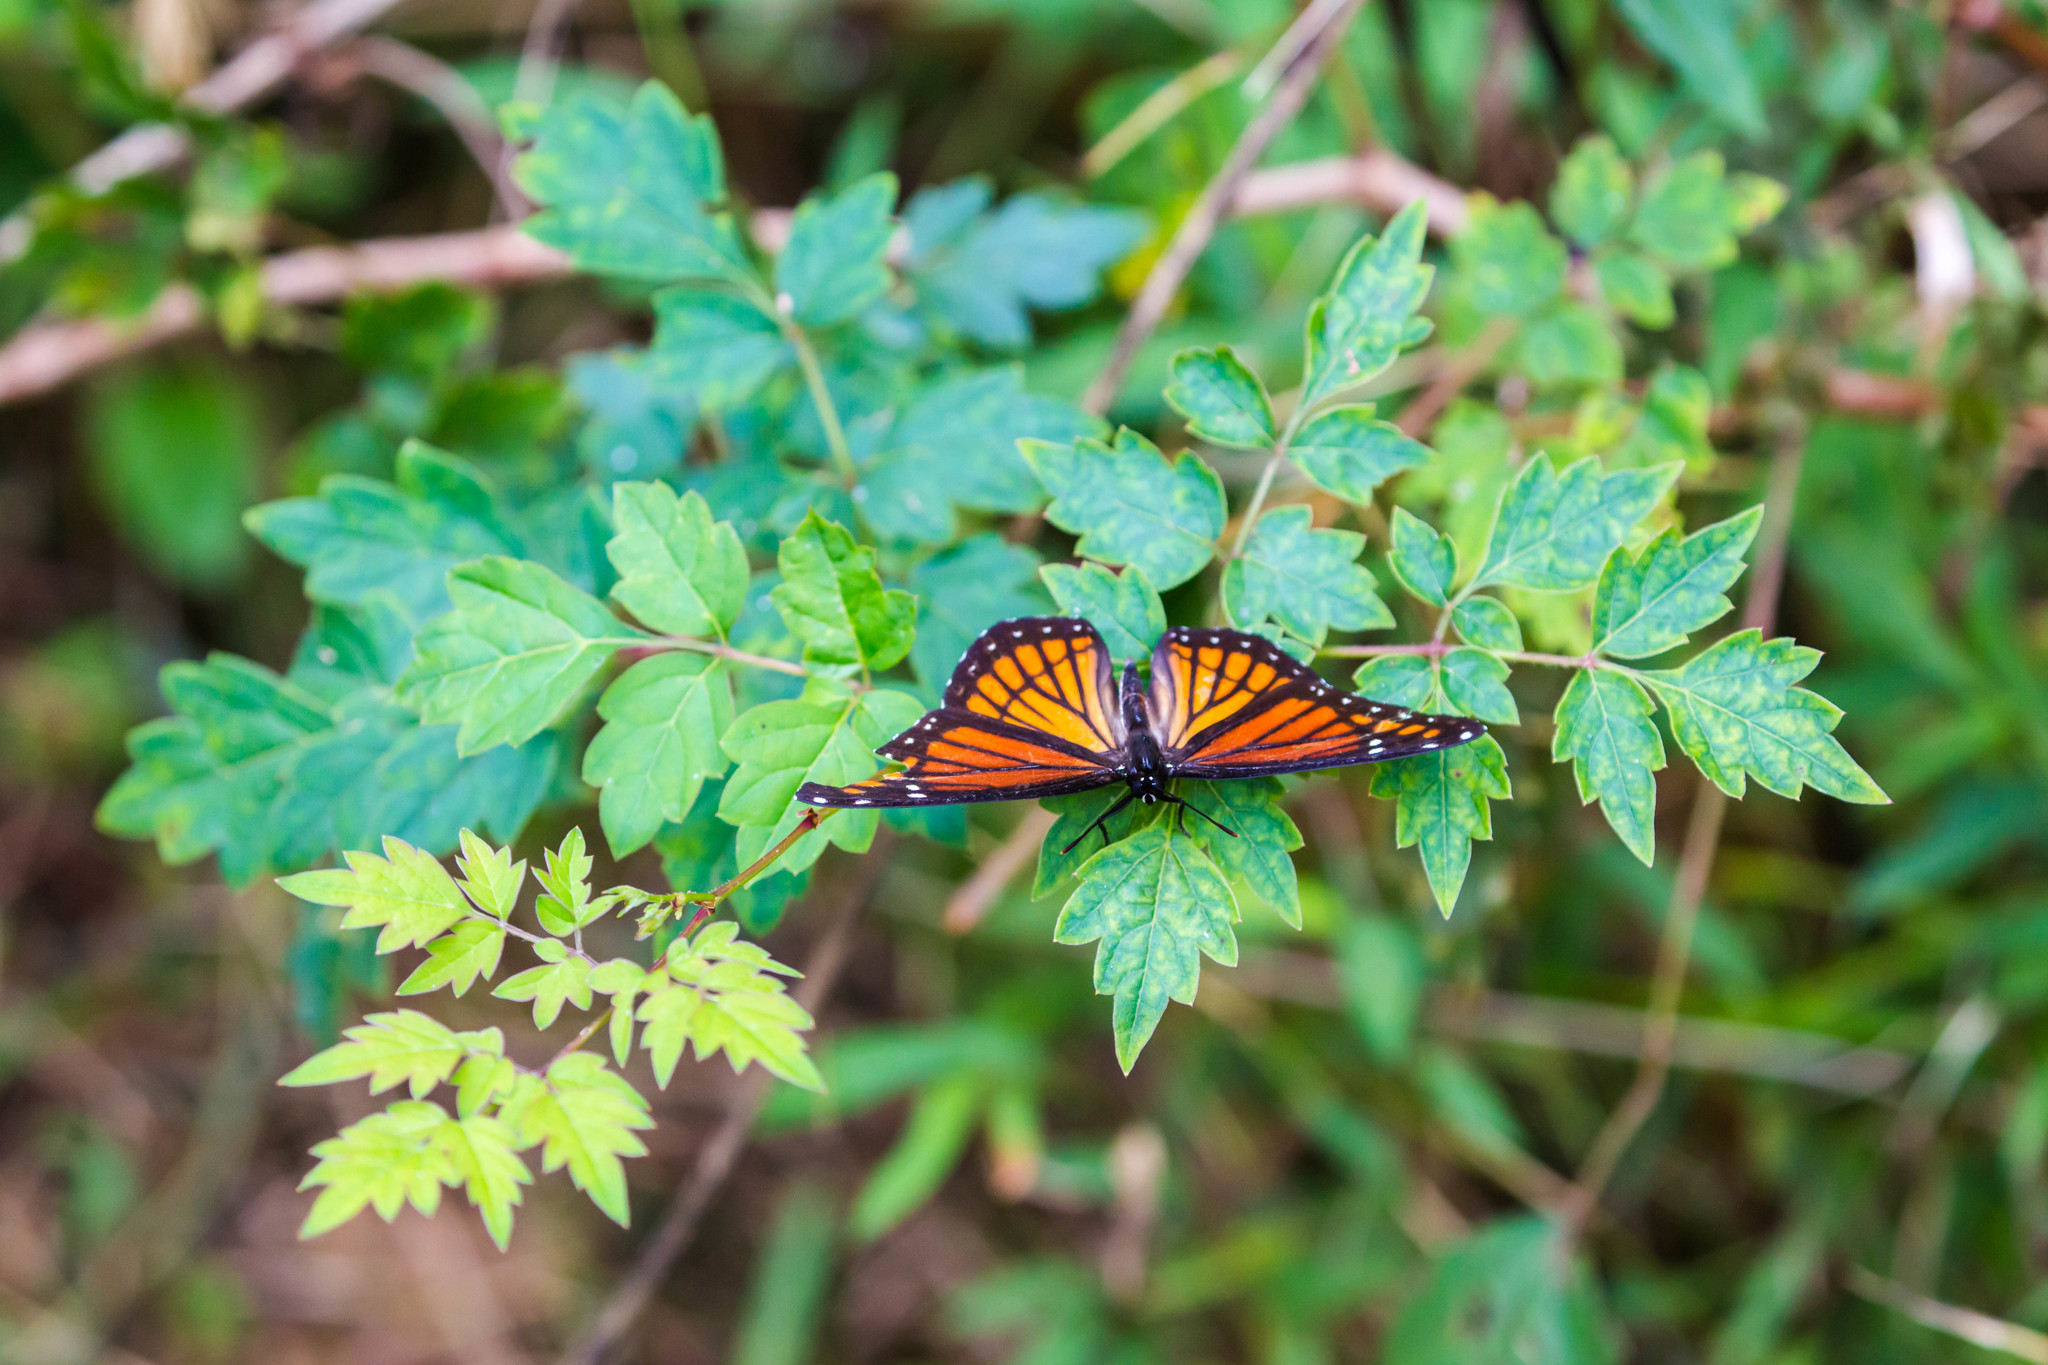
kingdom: Animalia
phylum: Arthropoda
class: Insecta
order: Lepidoptera
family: Nymphalidae
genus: Limenitis
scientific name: Limenitis archippus
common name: Viceroy
